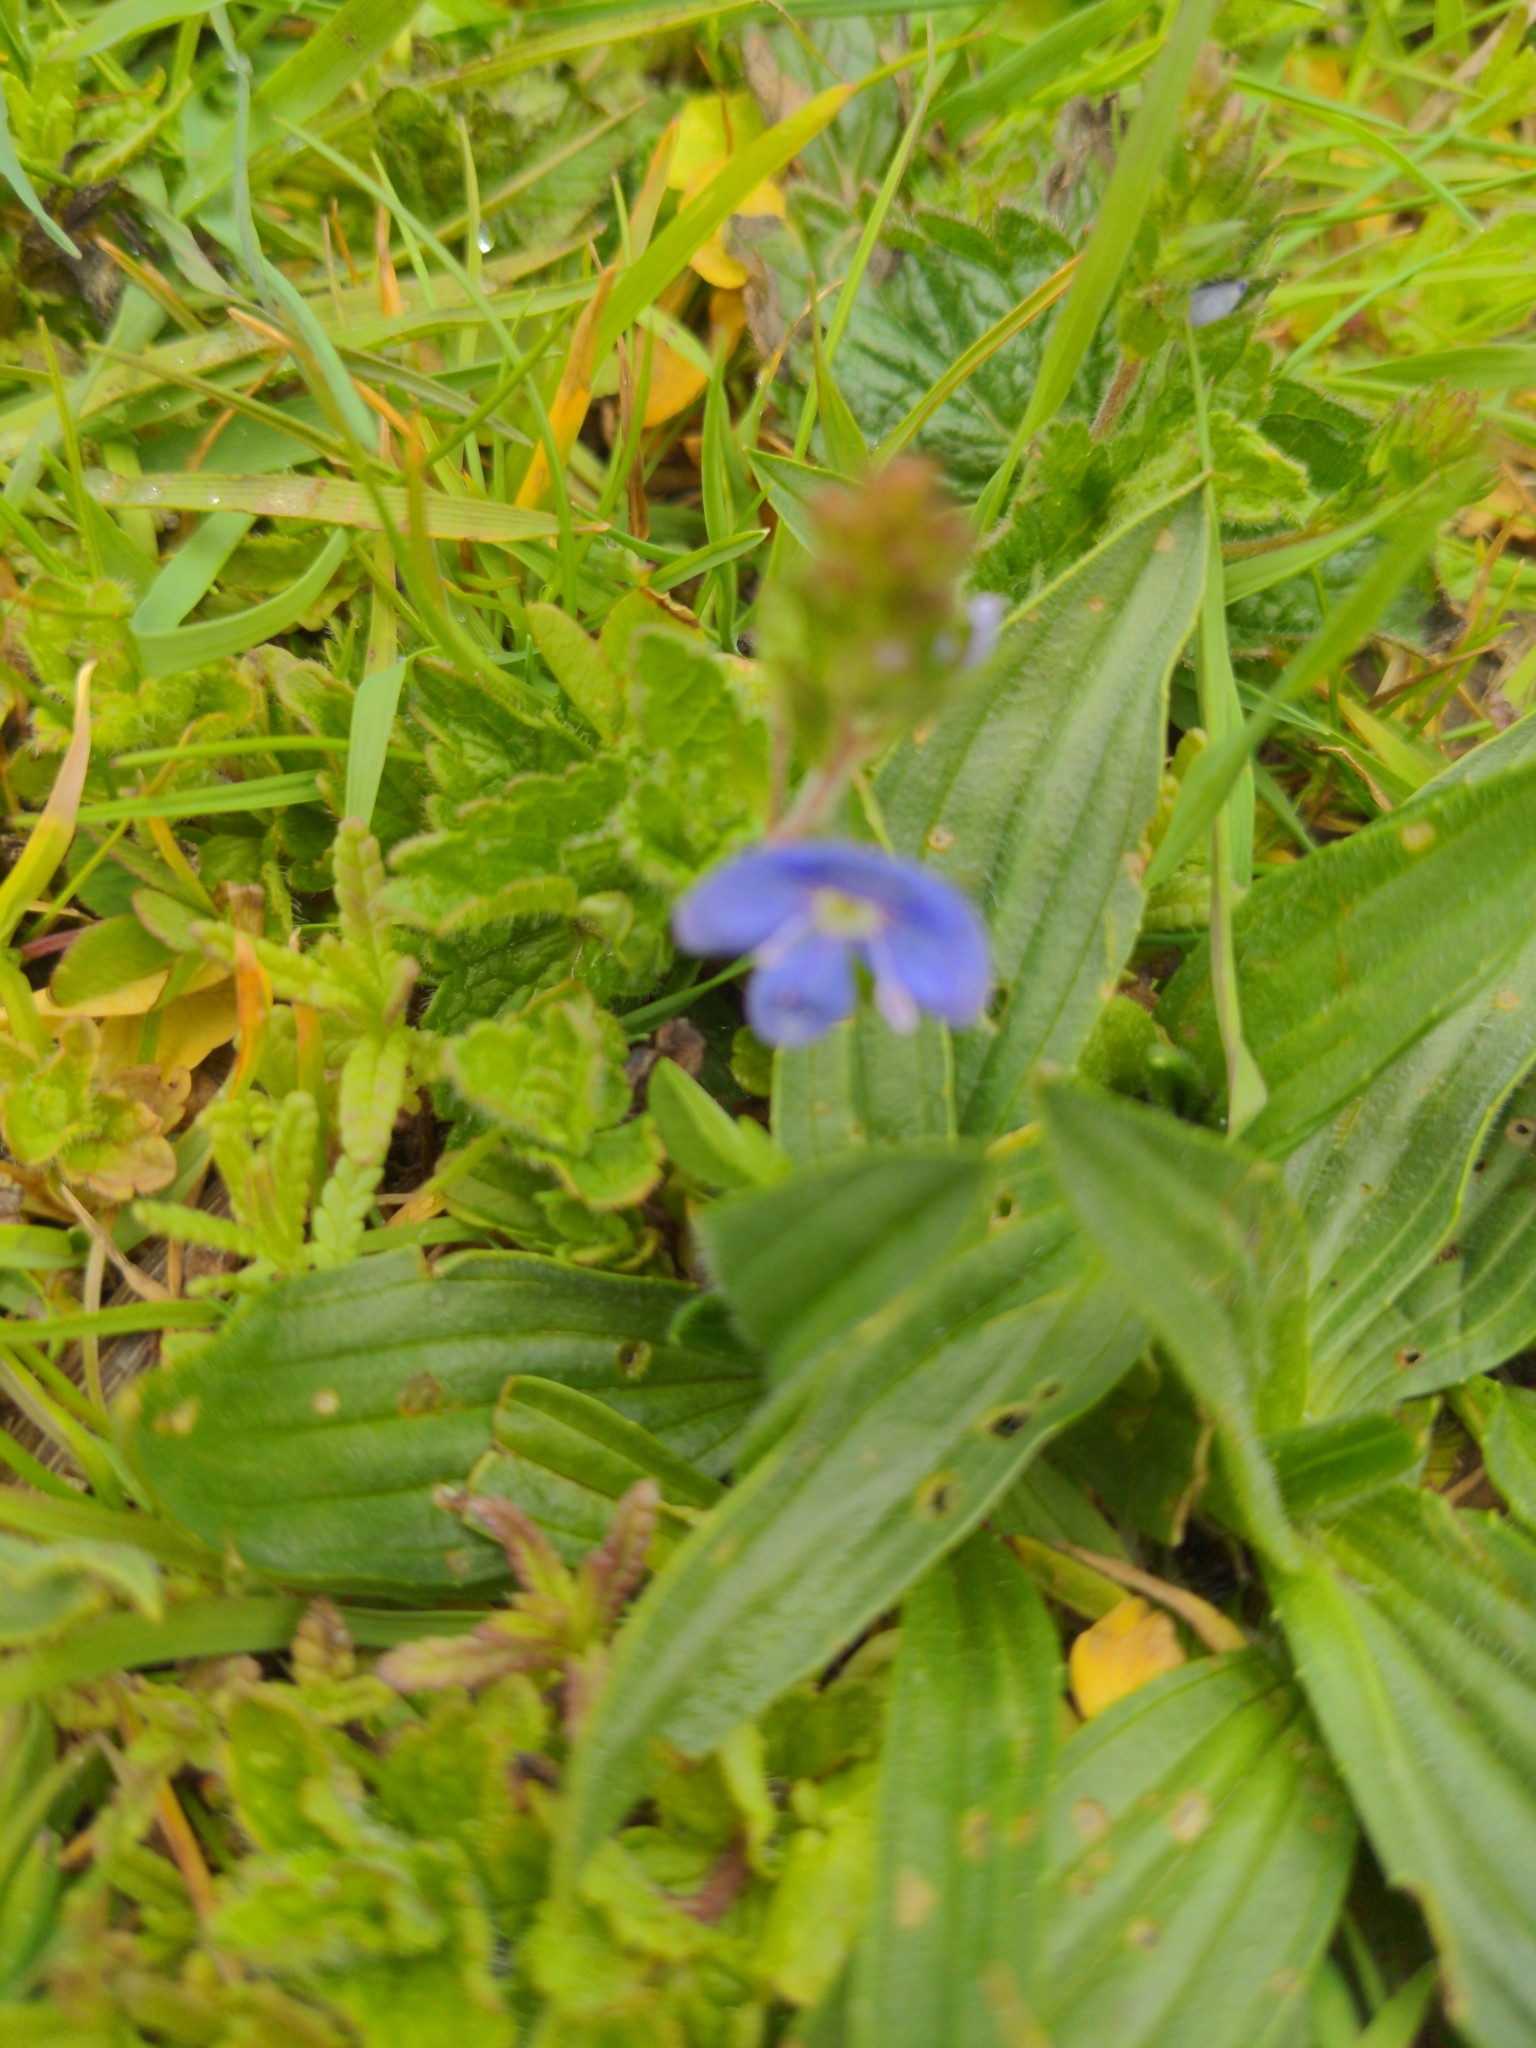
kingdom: Plantae
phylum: Tracheophyta
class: Magnoliopsida
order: Lamiales
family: Plantaginaceae
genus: Veronica
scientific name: Veronica chamaedrys
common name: Germander speedwell
